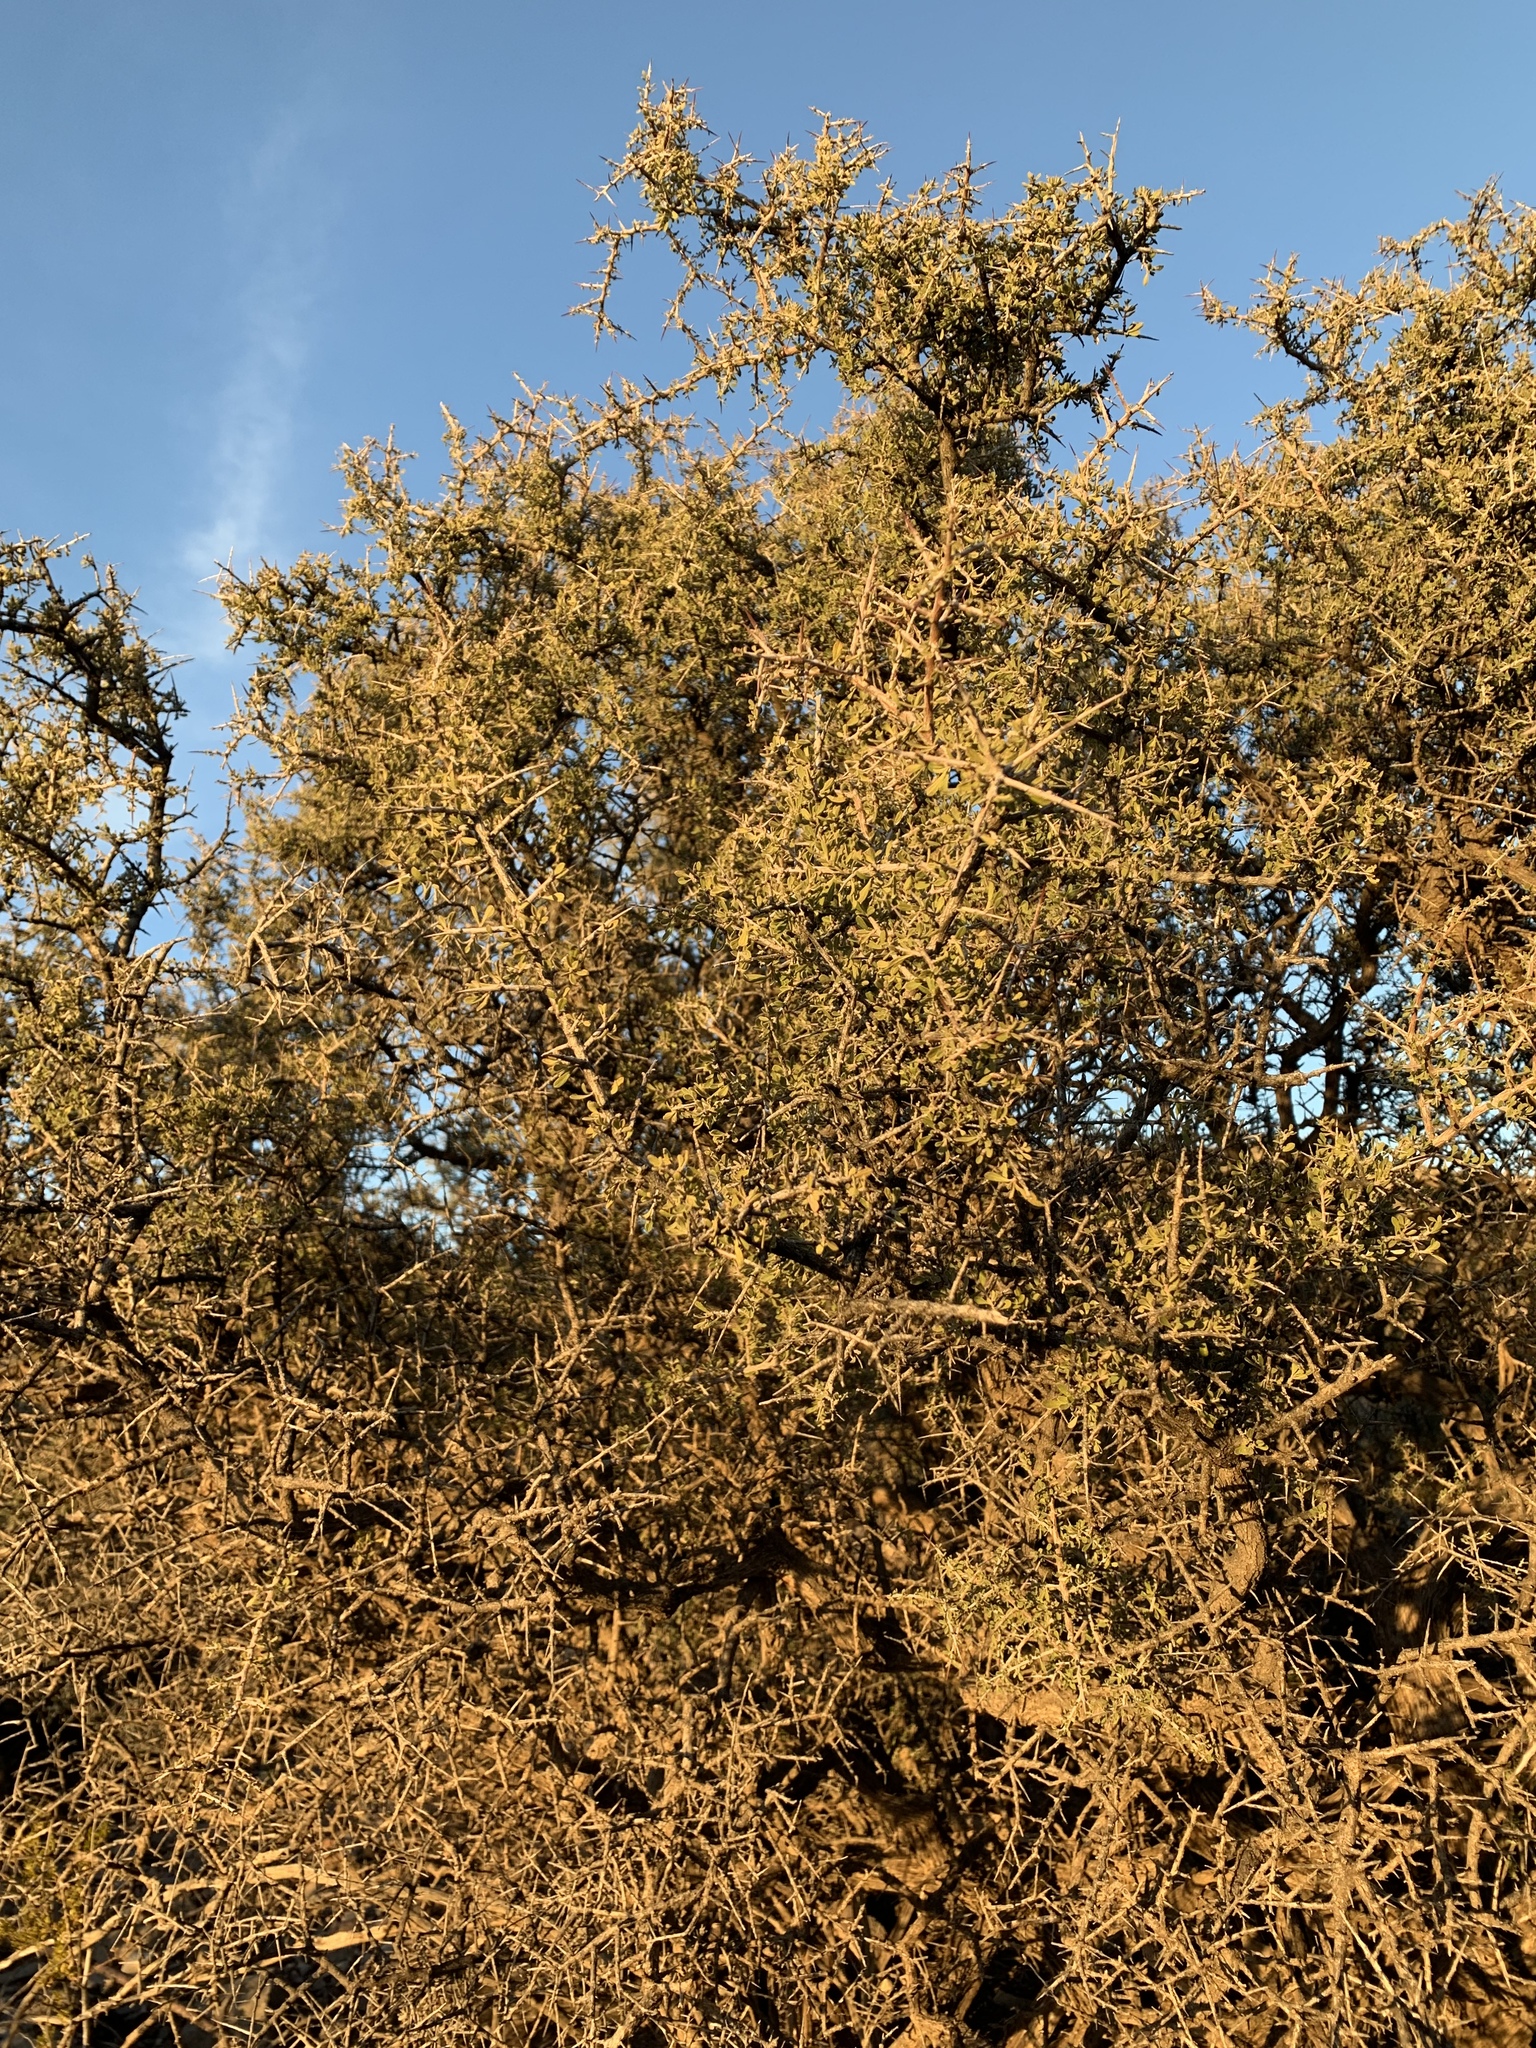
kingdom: Plantae
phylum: Tracheophyta
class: Magnoliopsida
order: Rosales
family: Rhamnaceae
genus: Condalia
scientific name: Condalia warnockii
